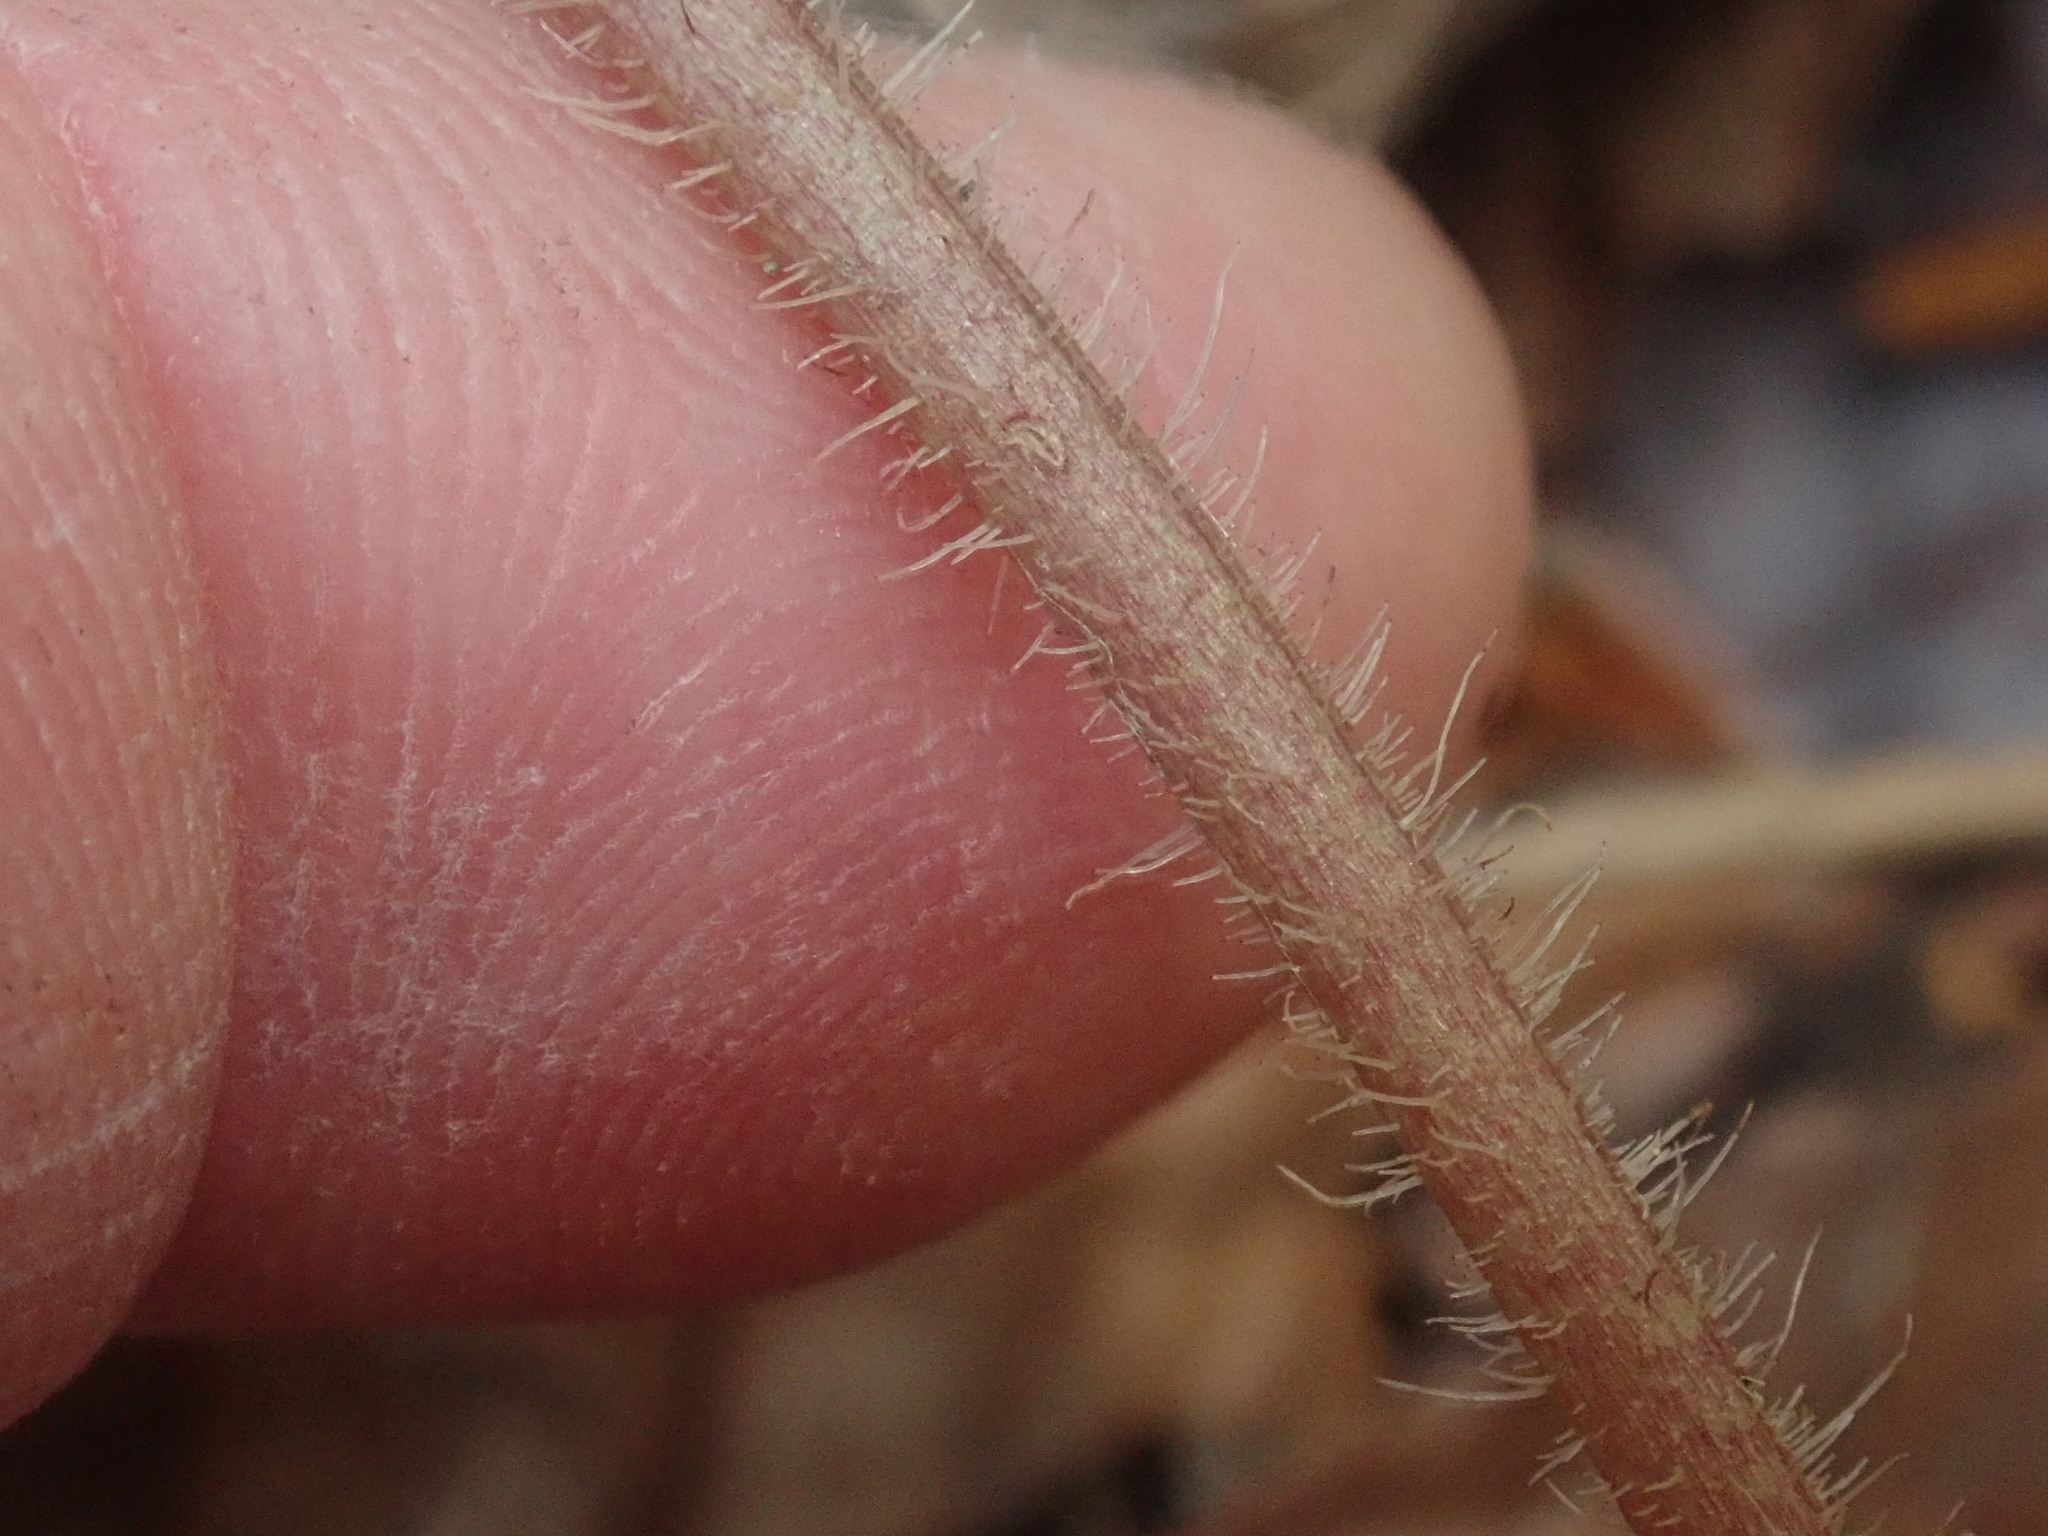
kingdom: Plantae
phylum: Tracheophyta
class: Magnoliopsida
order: Saxifragales
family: Saxifragaceae
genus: Tiarella
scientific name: Tiarella stolonifera
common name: Stoloniferous foamflower
